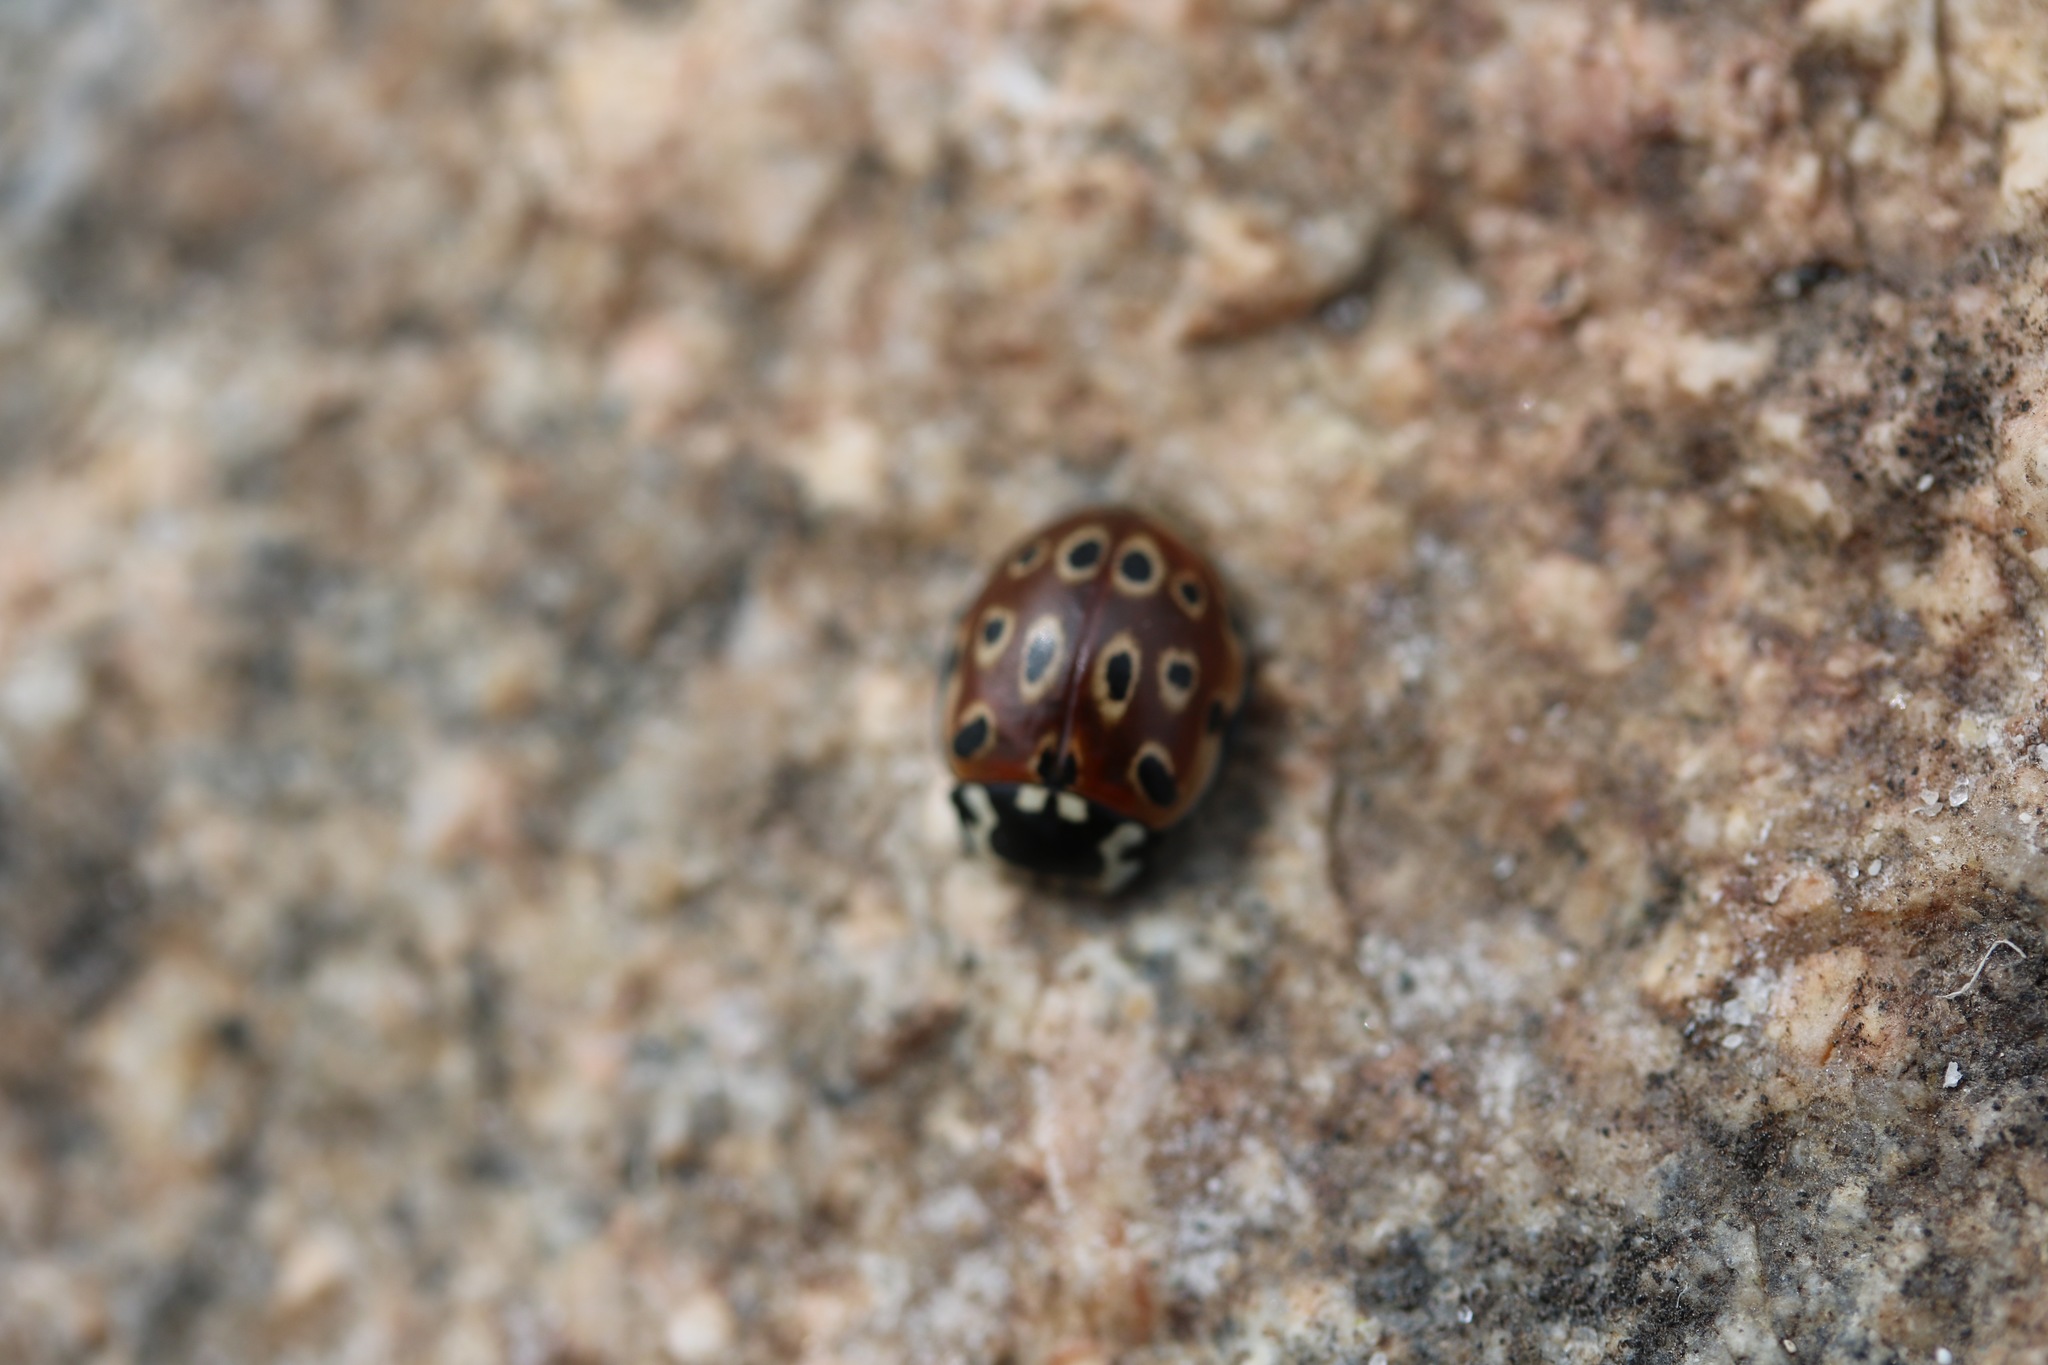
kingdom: Animalia
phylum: Arthropoda
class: Insecta
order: Coleoptera
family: Coccinellidae
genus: Anatis
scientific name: Anatis ocellata
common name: Eyed ladybird
